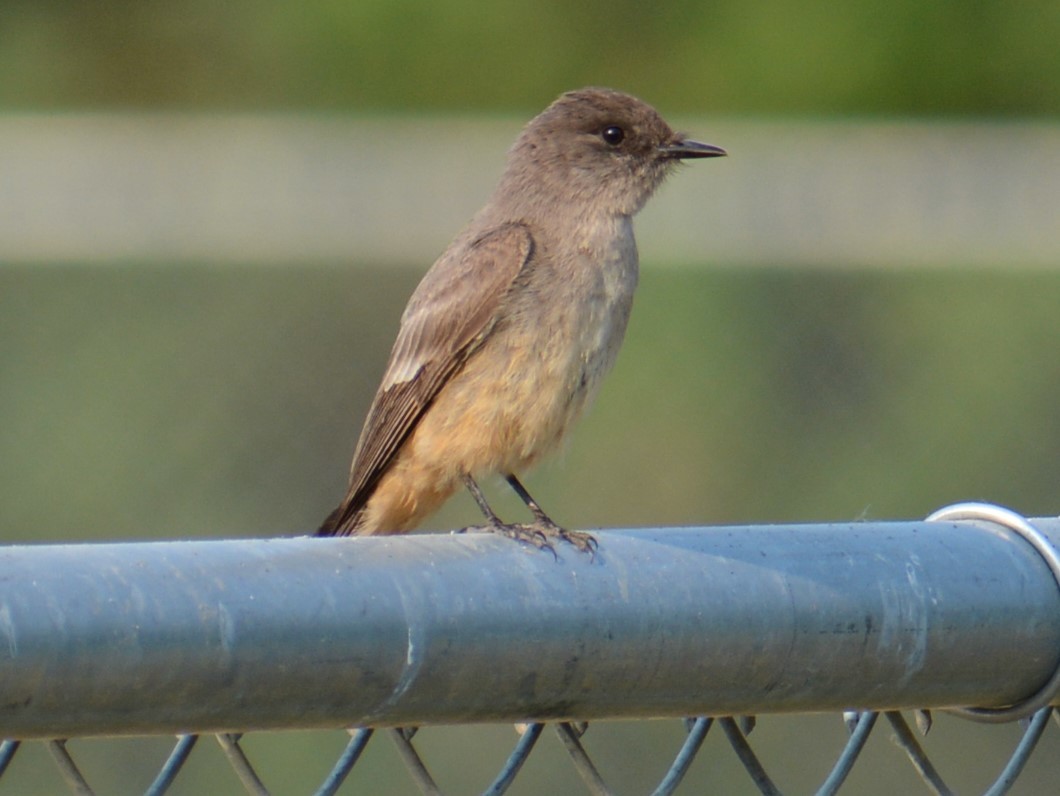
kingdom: Animalia
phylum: Chordata
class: Aves
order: Passeriformes
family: Tyrannidae
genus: Sayornis
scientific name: Sayornis saya
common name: Say's phoebe
